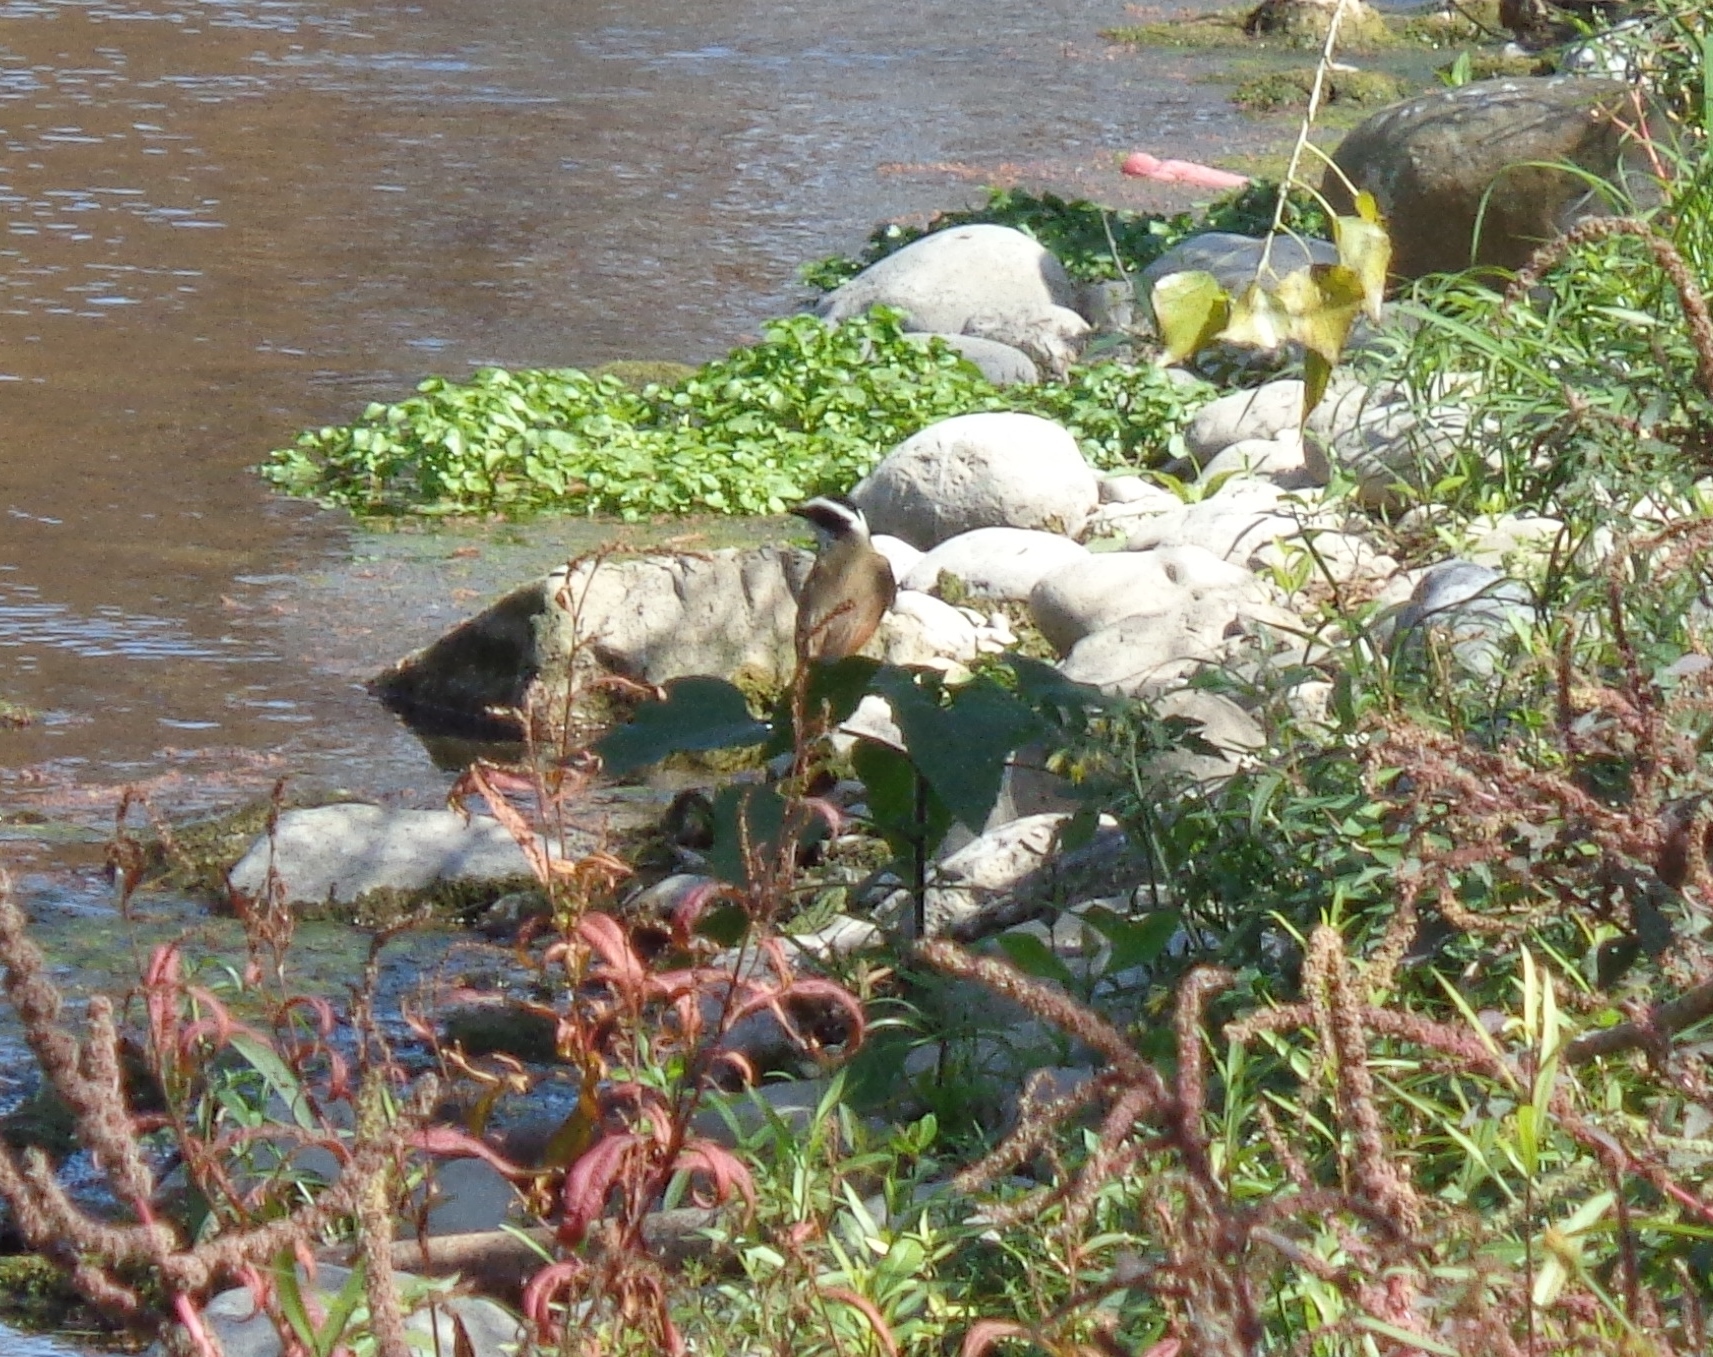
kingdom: Animalia
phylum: Chordata
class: Aves
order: Passeriformes
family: Tyrannidae
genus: Pitangus
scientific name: Pitangus sulphuratus
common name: Great kiskadee
